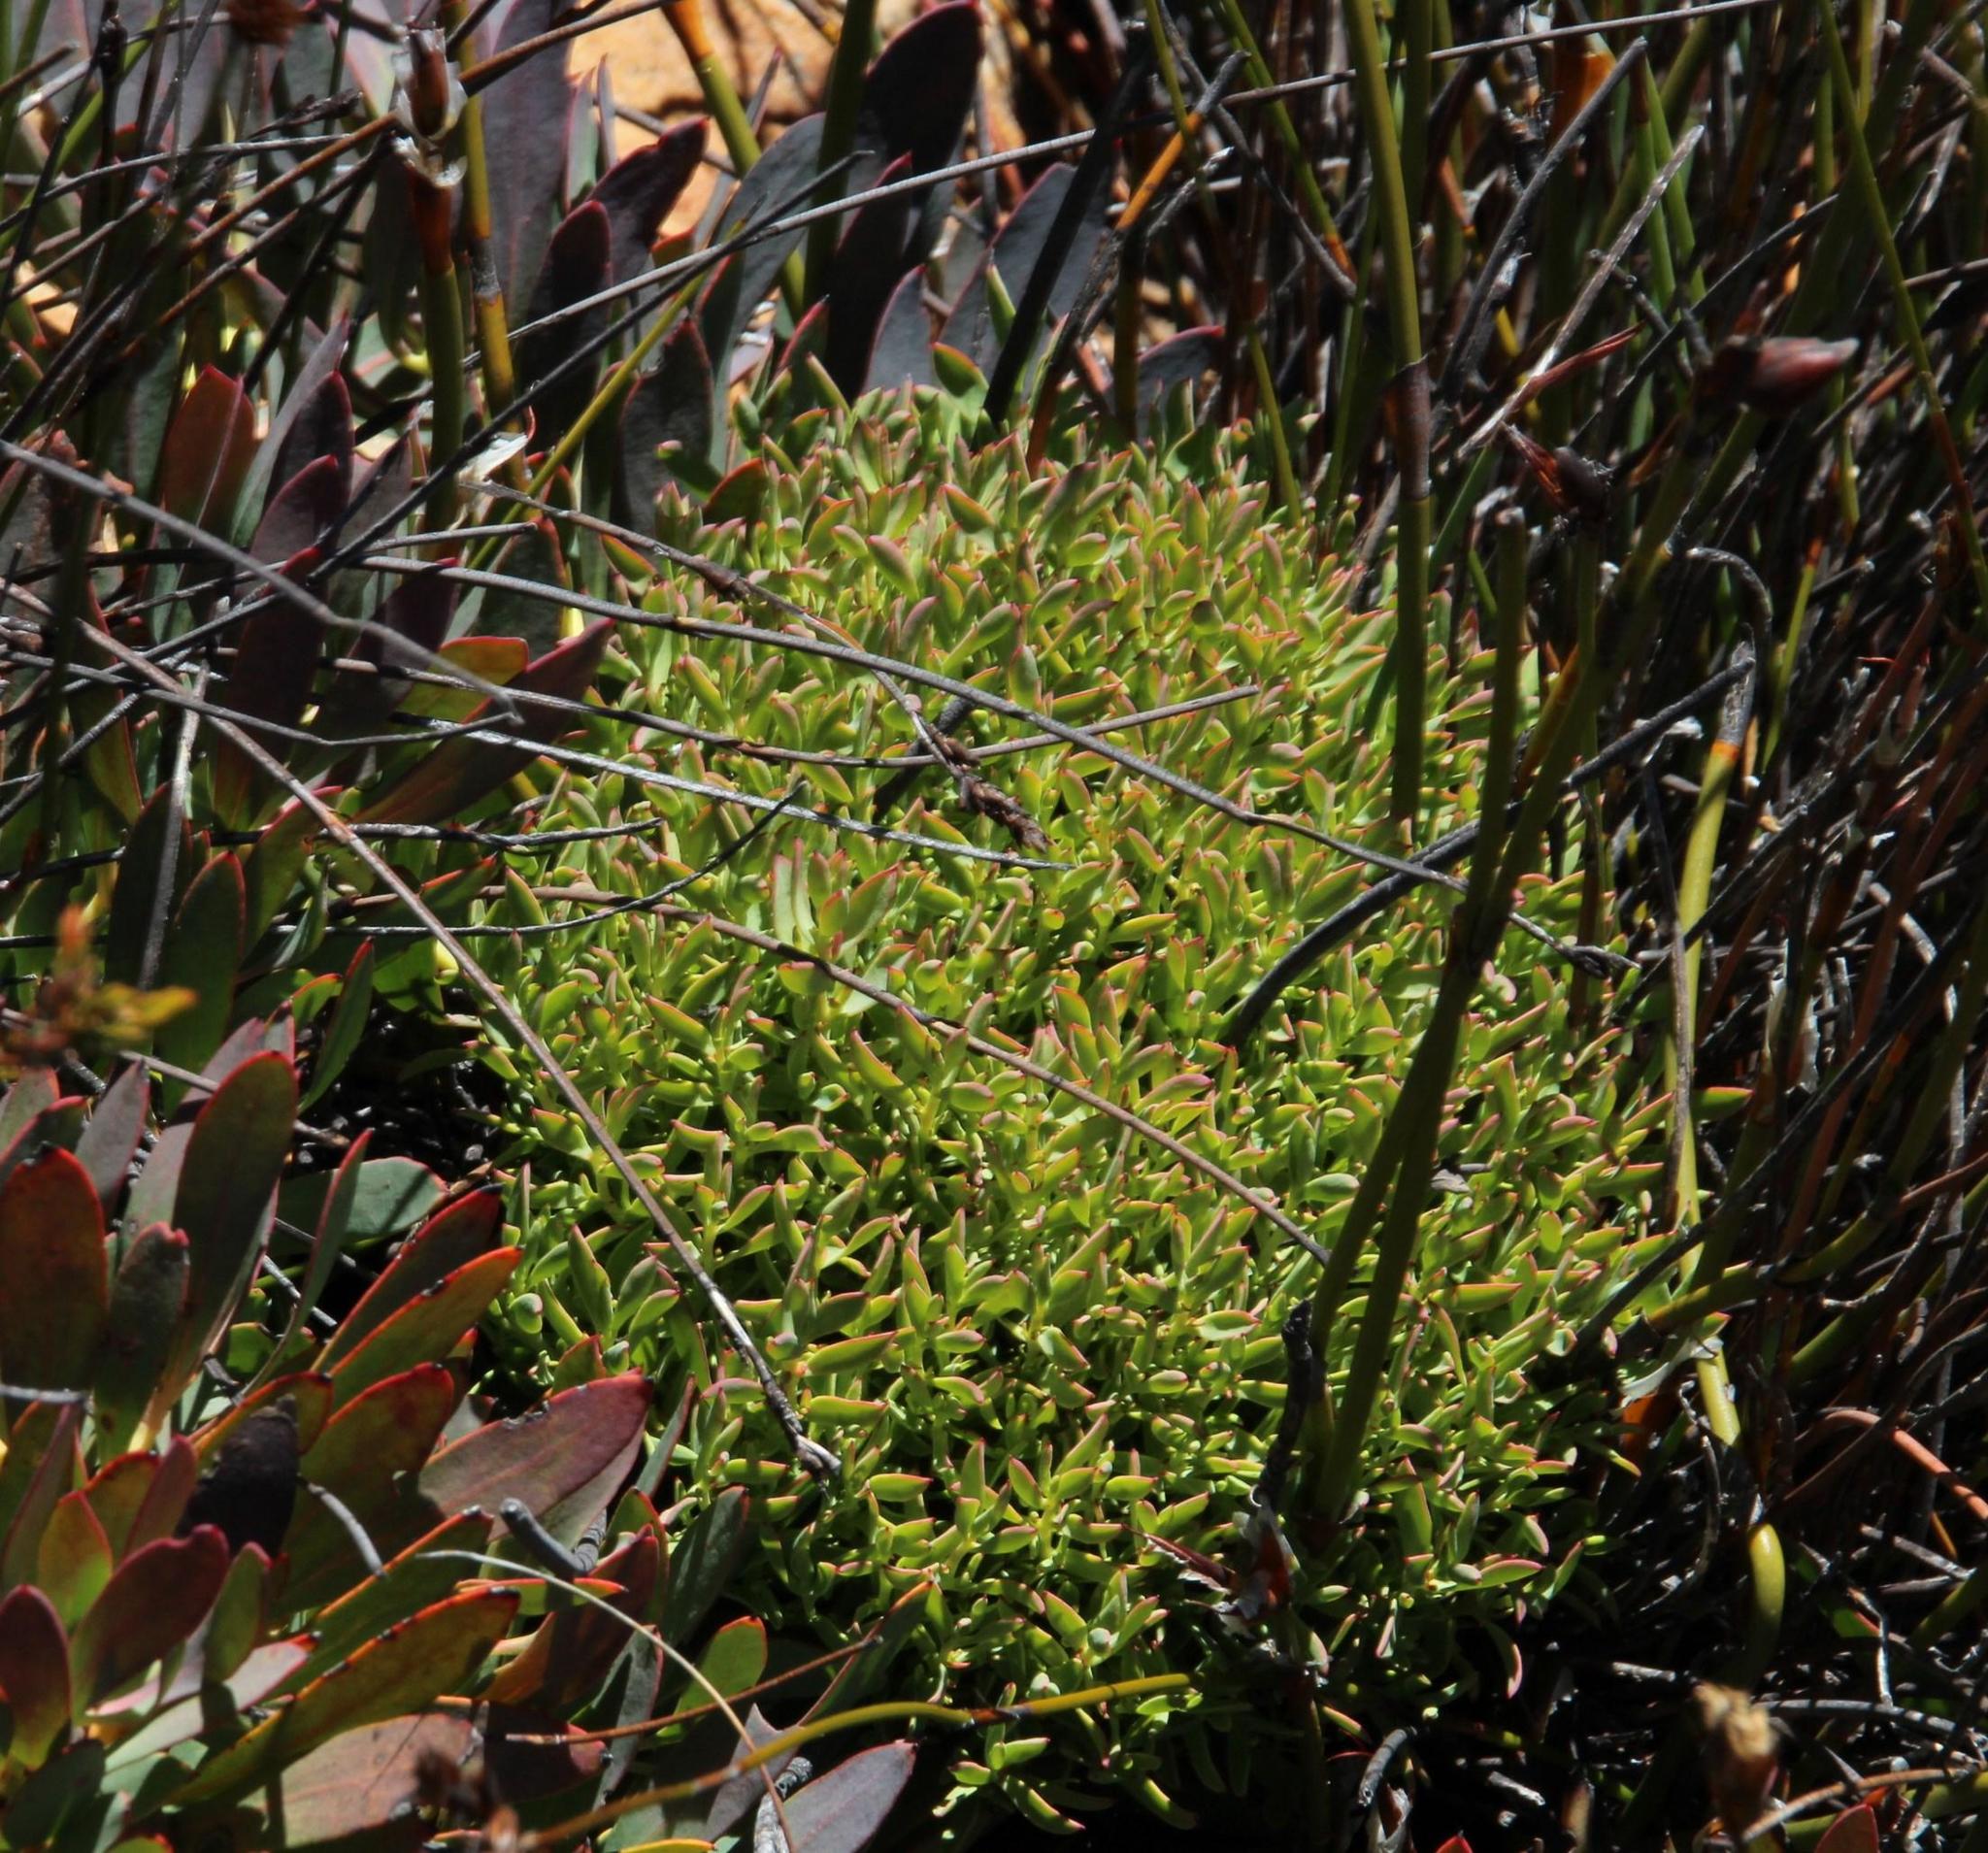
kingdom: Bacteria
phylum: Firmicutes
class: Bacilli
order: Acholeplasmatales
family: Acholeplasmataceae
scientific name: Acholeplasmataceae
